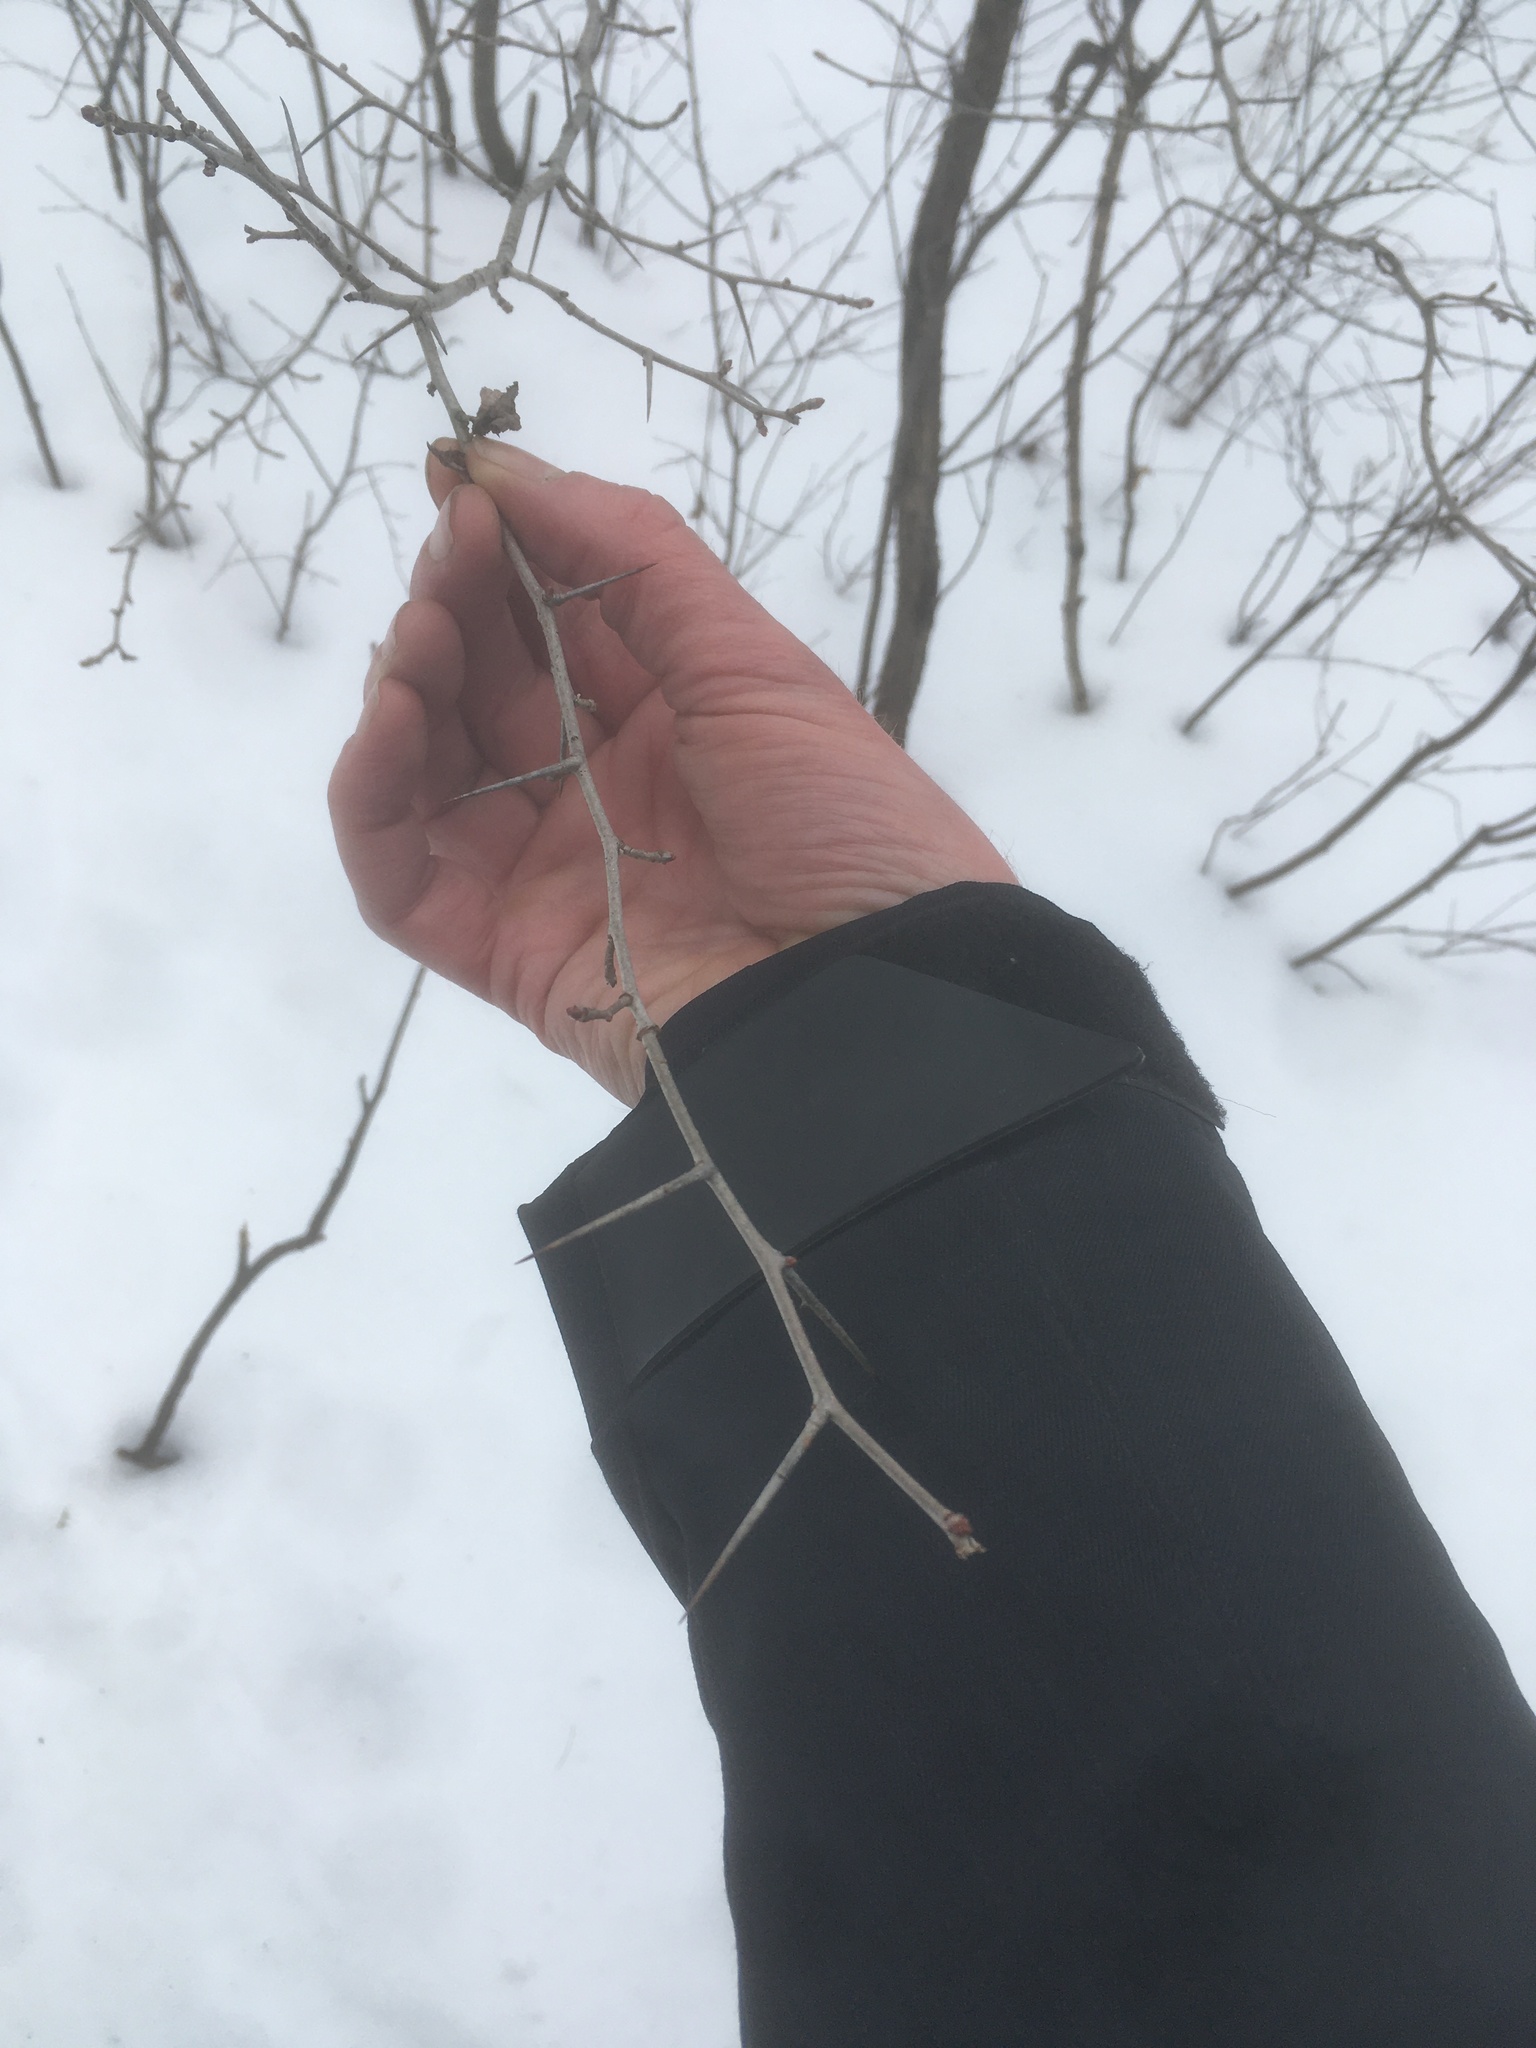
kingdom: Plantae
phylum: Tracheophyta
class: Magnoliopsida
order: Rosales
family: Rosaceae
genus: Crataegus
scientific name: Crataegus
